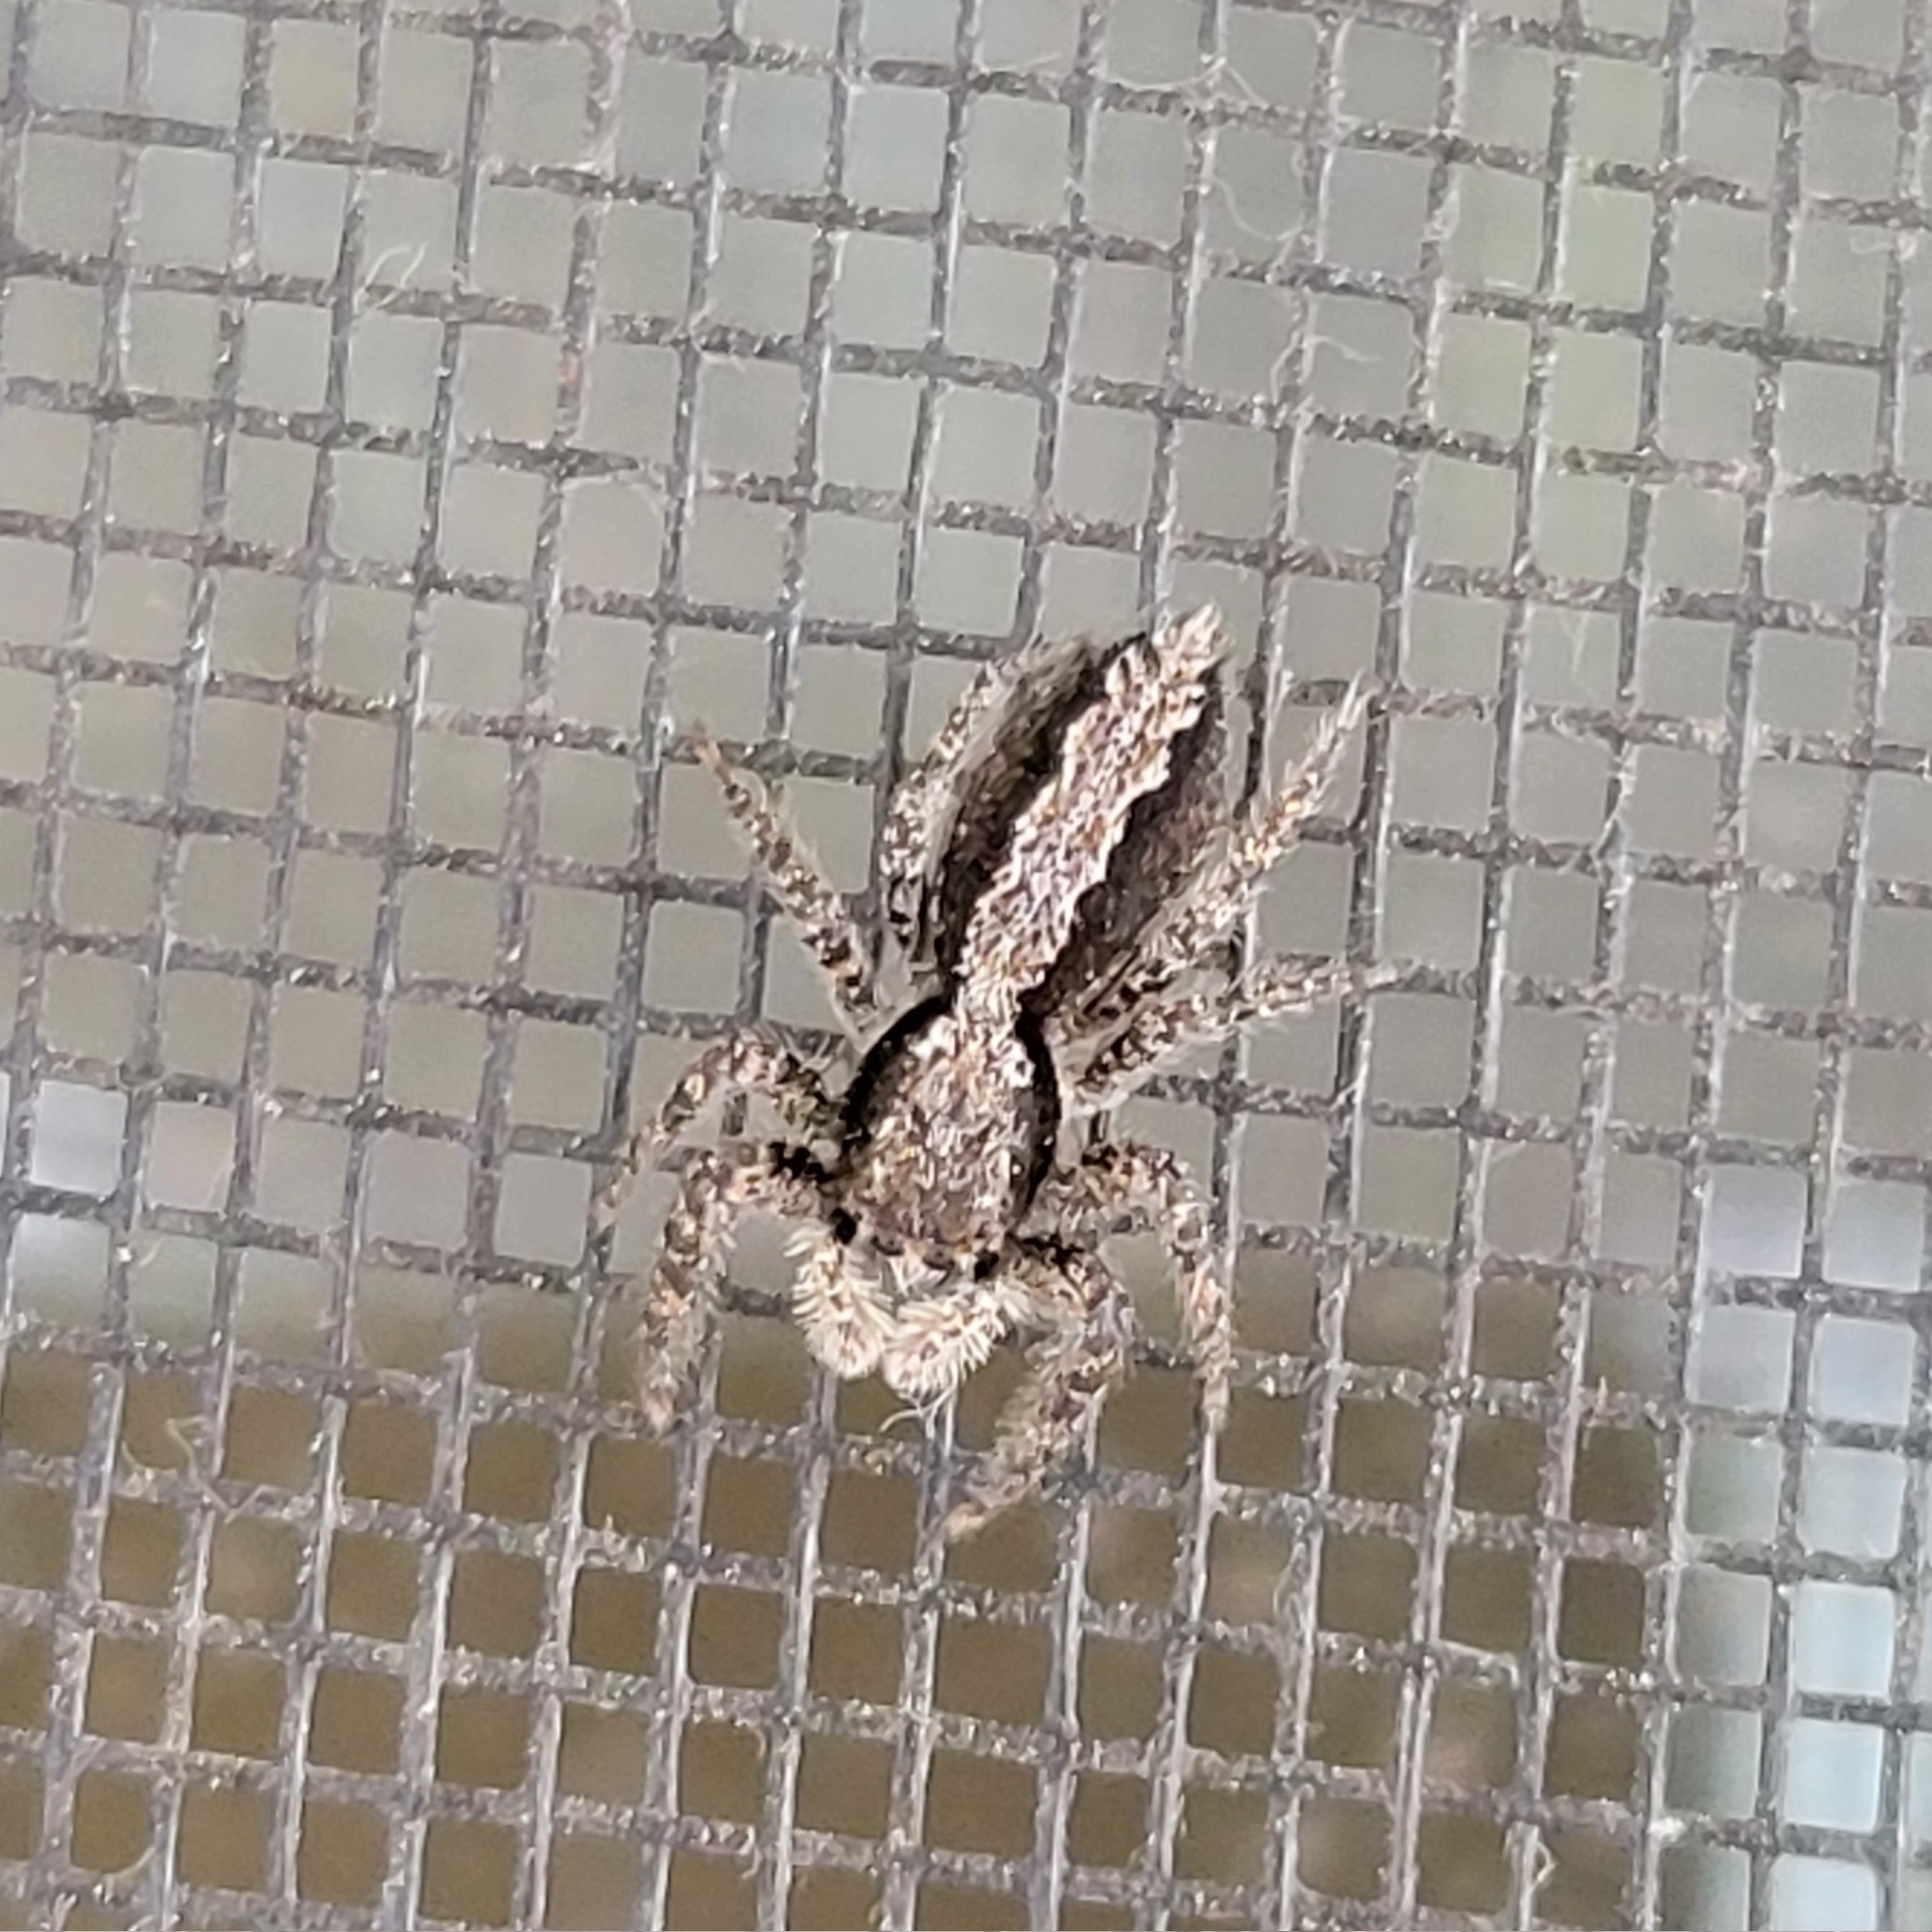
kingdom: Animalia
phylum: Arthropoda
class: Arachnida
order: Araneae
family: Salticidae
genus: Platycryptus
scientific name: Platycryptus californicus
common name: Jumping spiders
